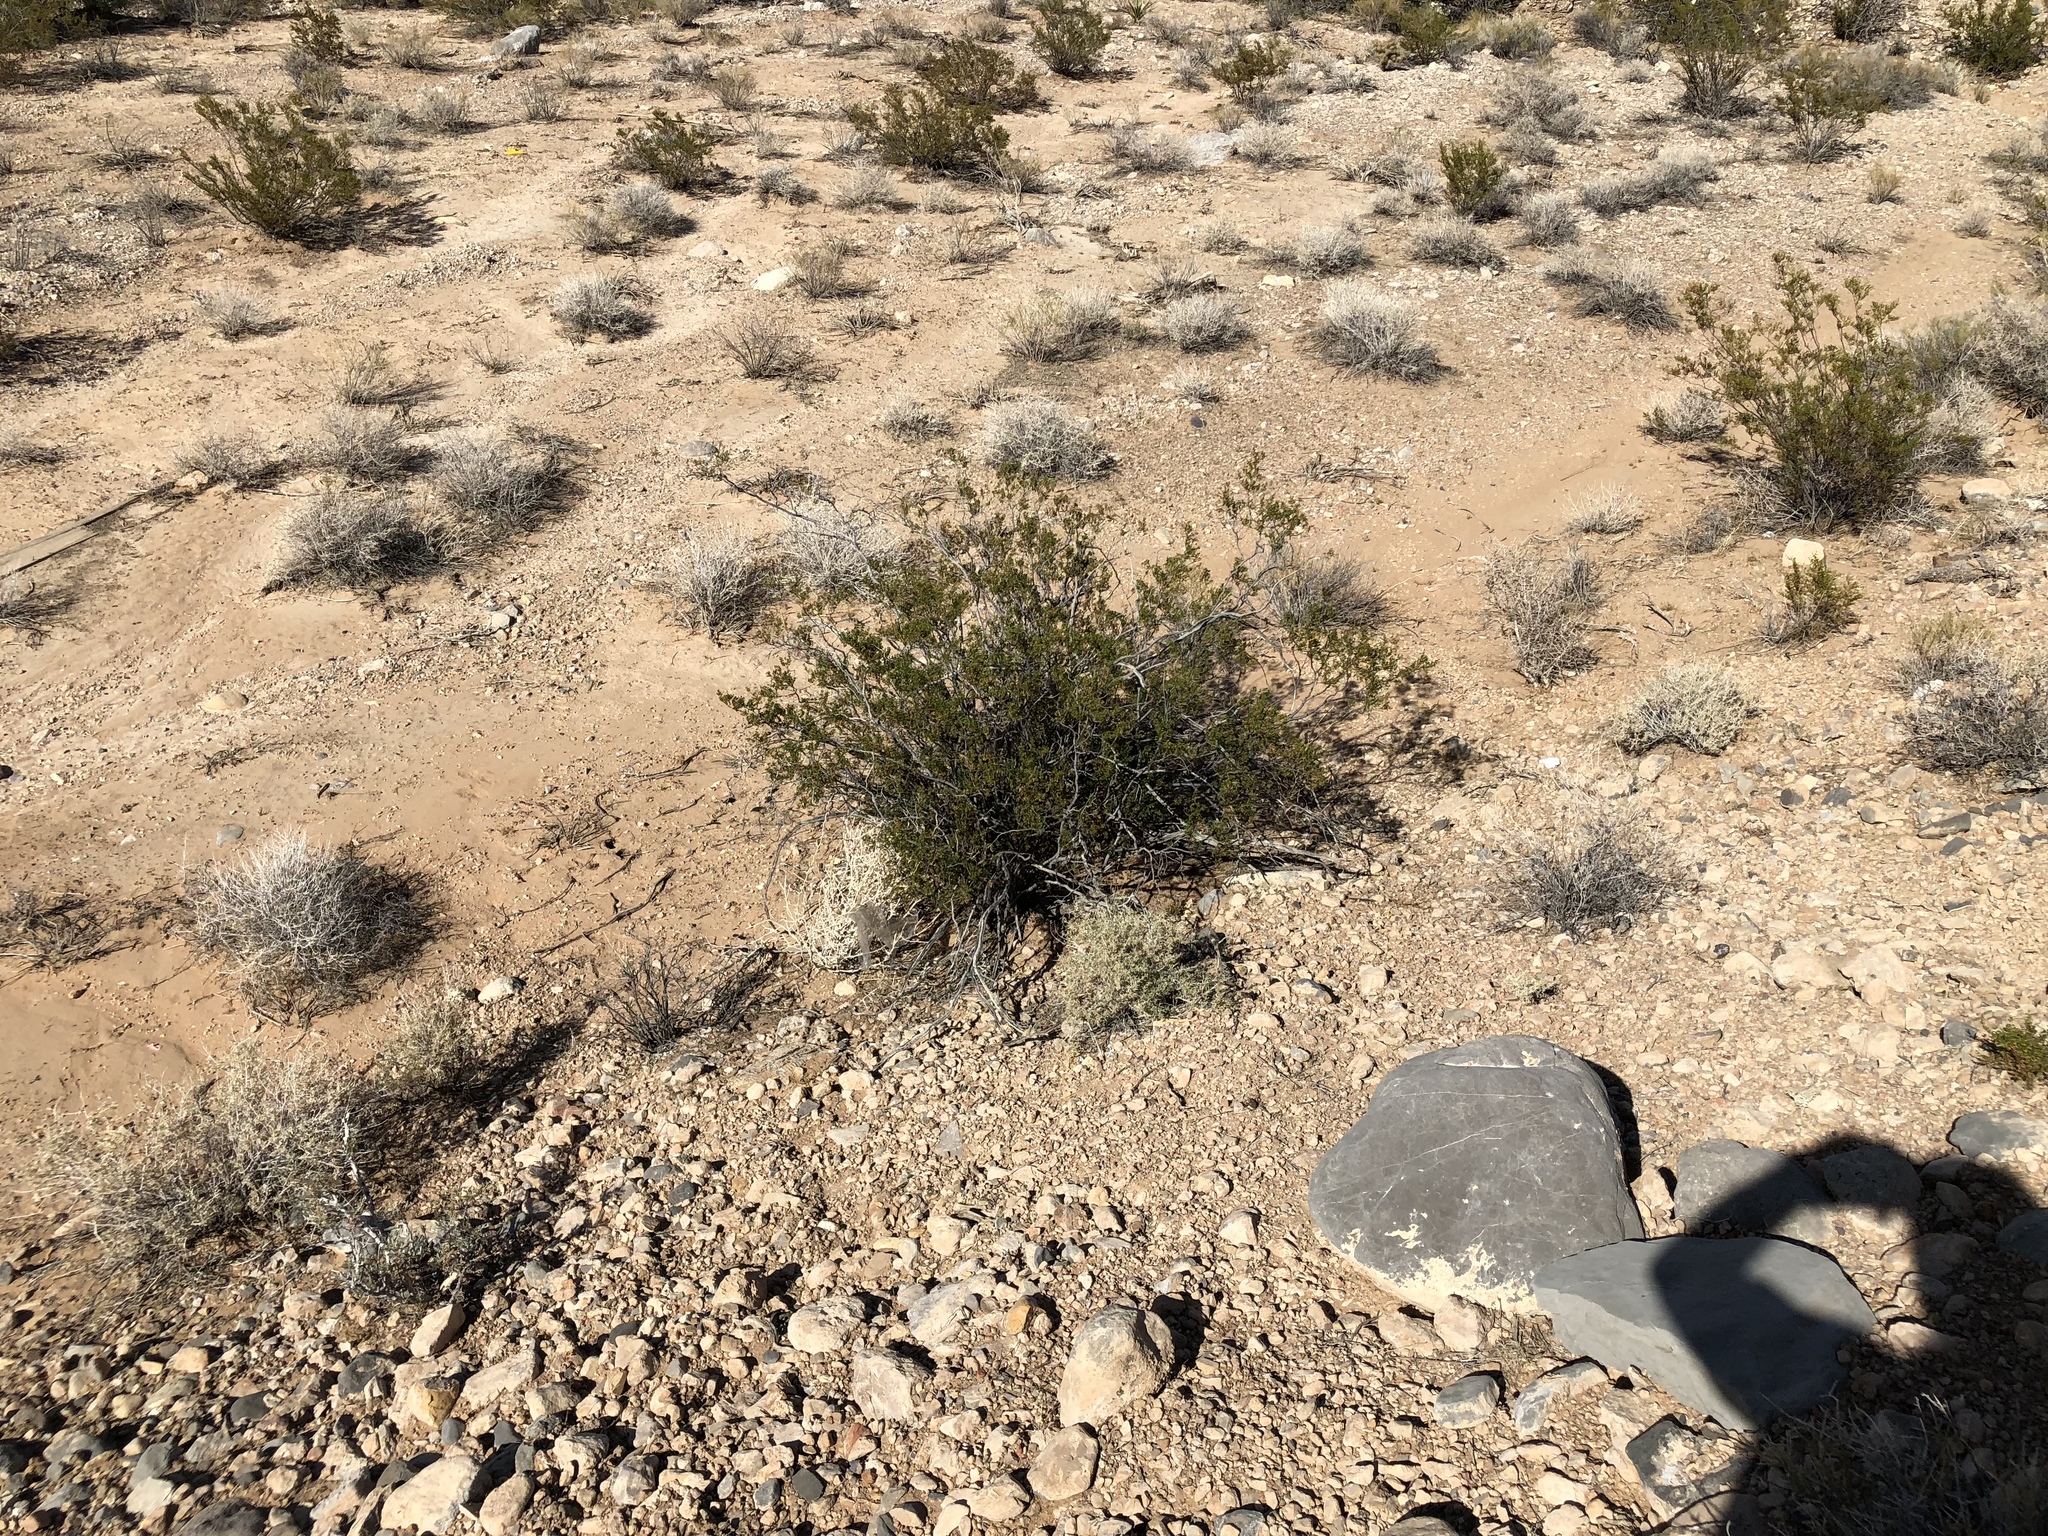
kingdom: Plantae
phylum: Tracheophyta
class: Magnoliopsida
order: Zygophyllales
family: Zygophyllaceae
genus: Larrea
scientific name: Larrea tridentata
